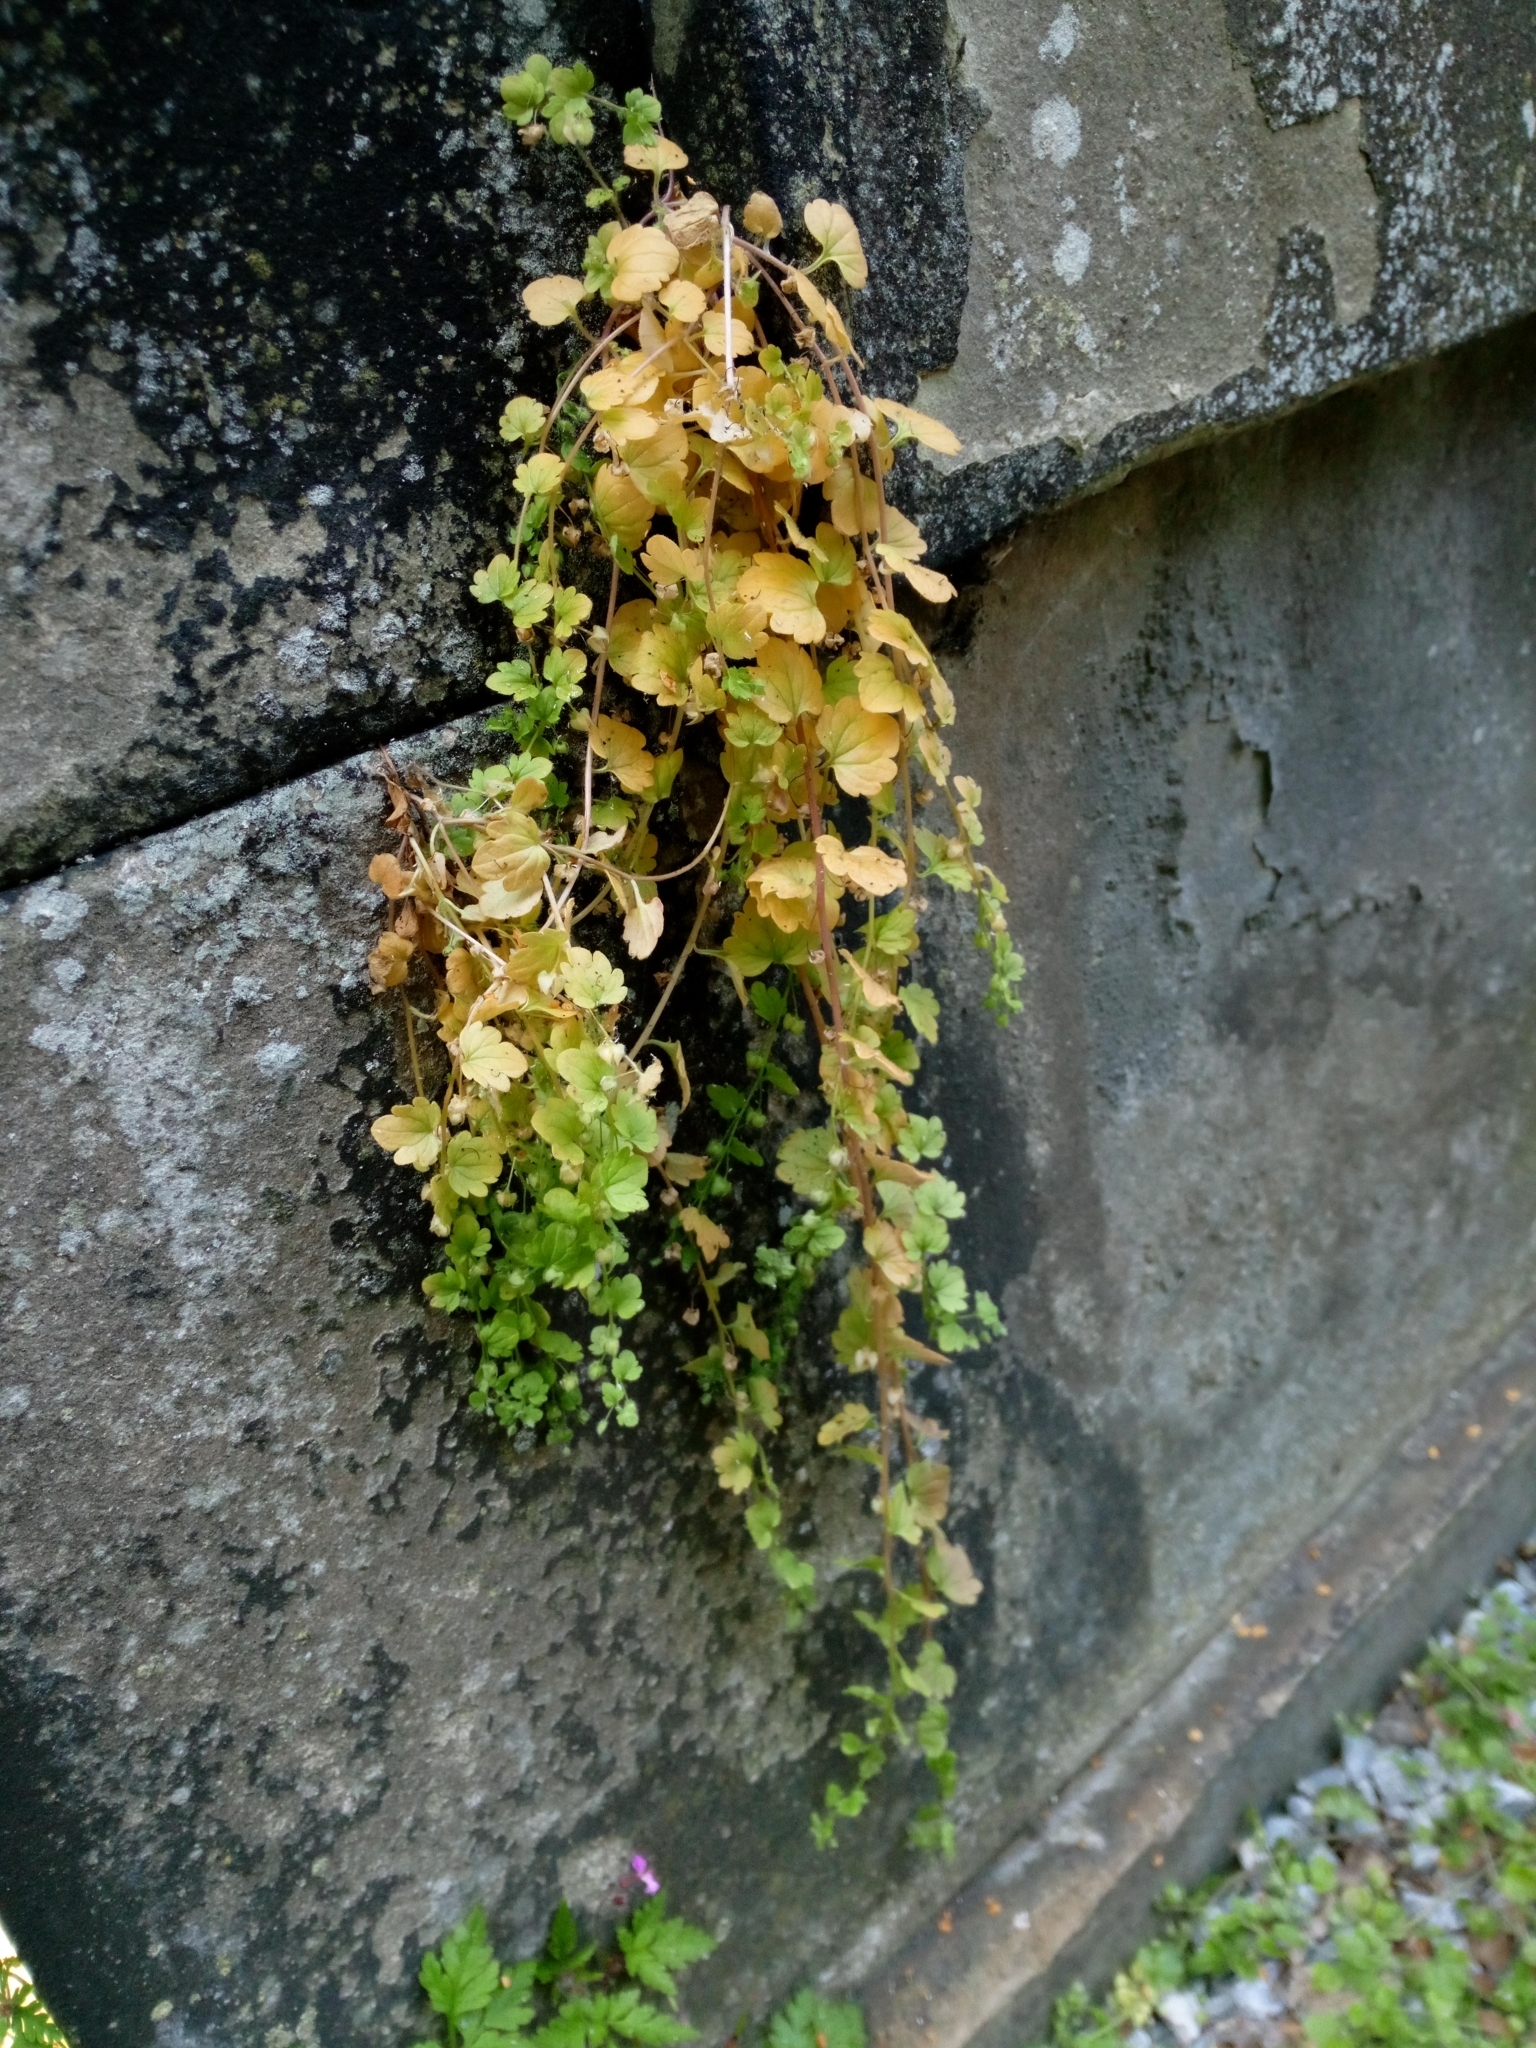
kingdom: Plantae
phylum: Tracheophyta
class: Magnoliopsida
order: Lamiales
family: Plantaginaceae
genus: Cymbalaria
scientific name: Cymbalaria muralis
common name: Ivy-leaved toadflax
